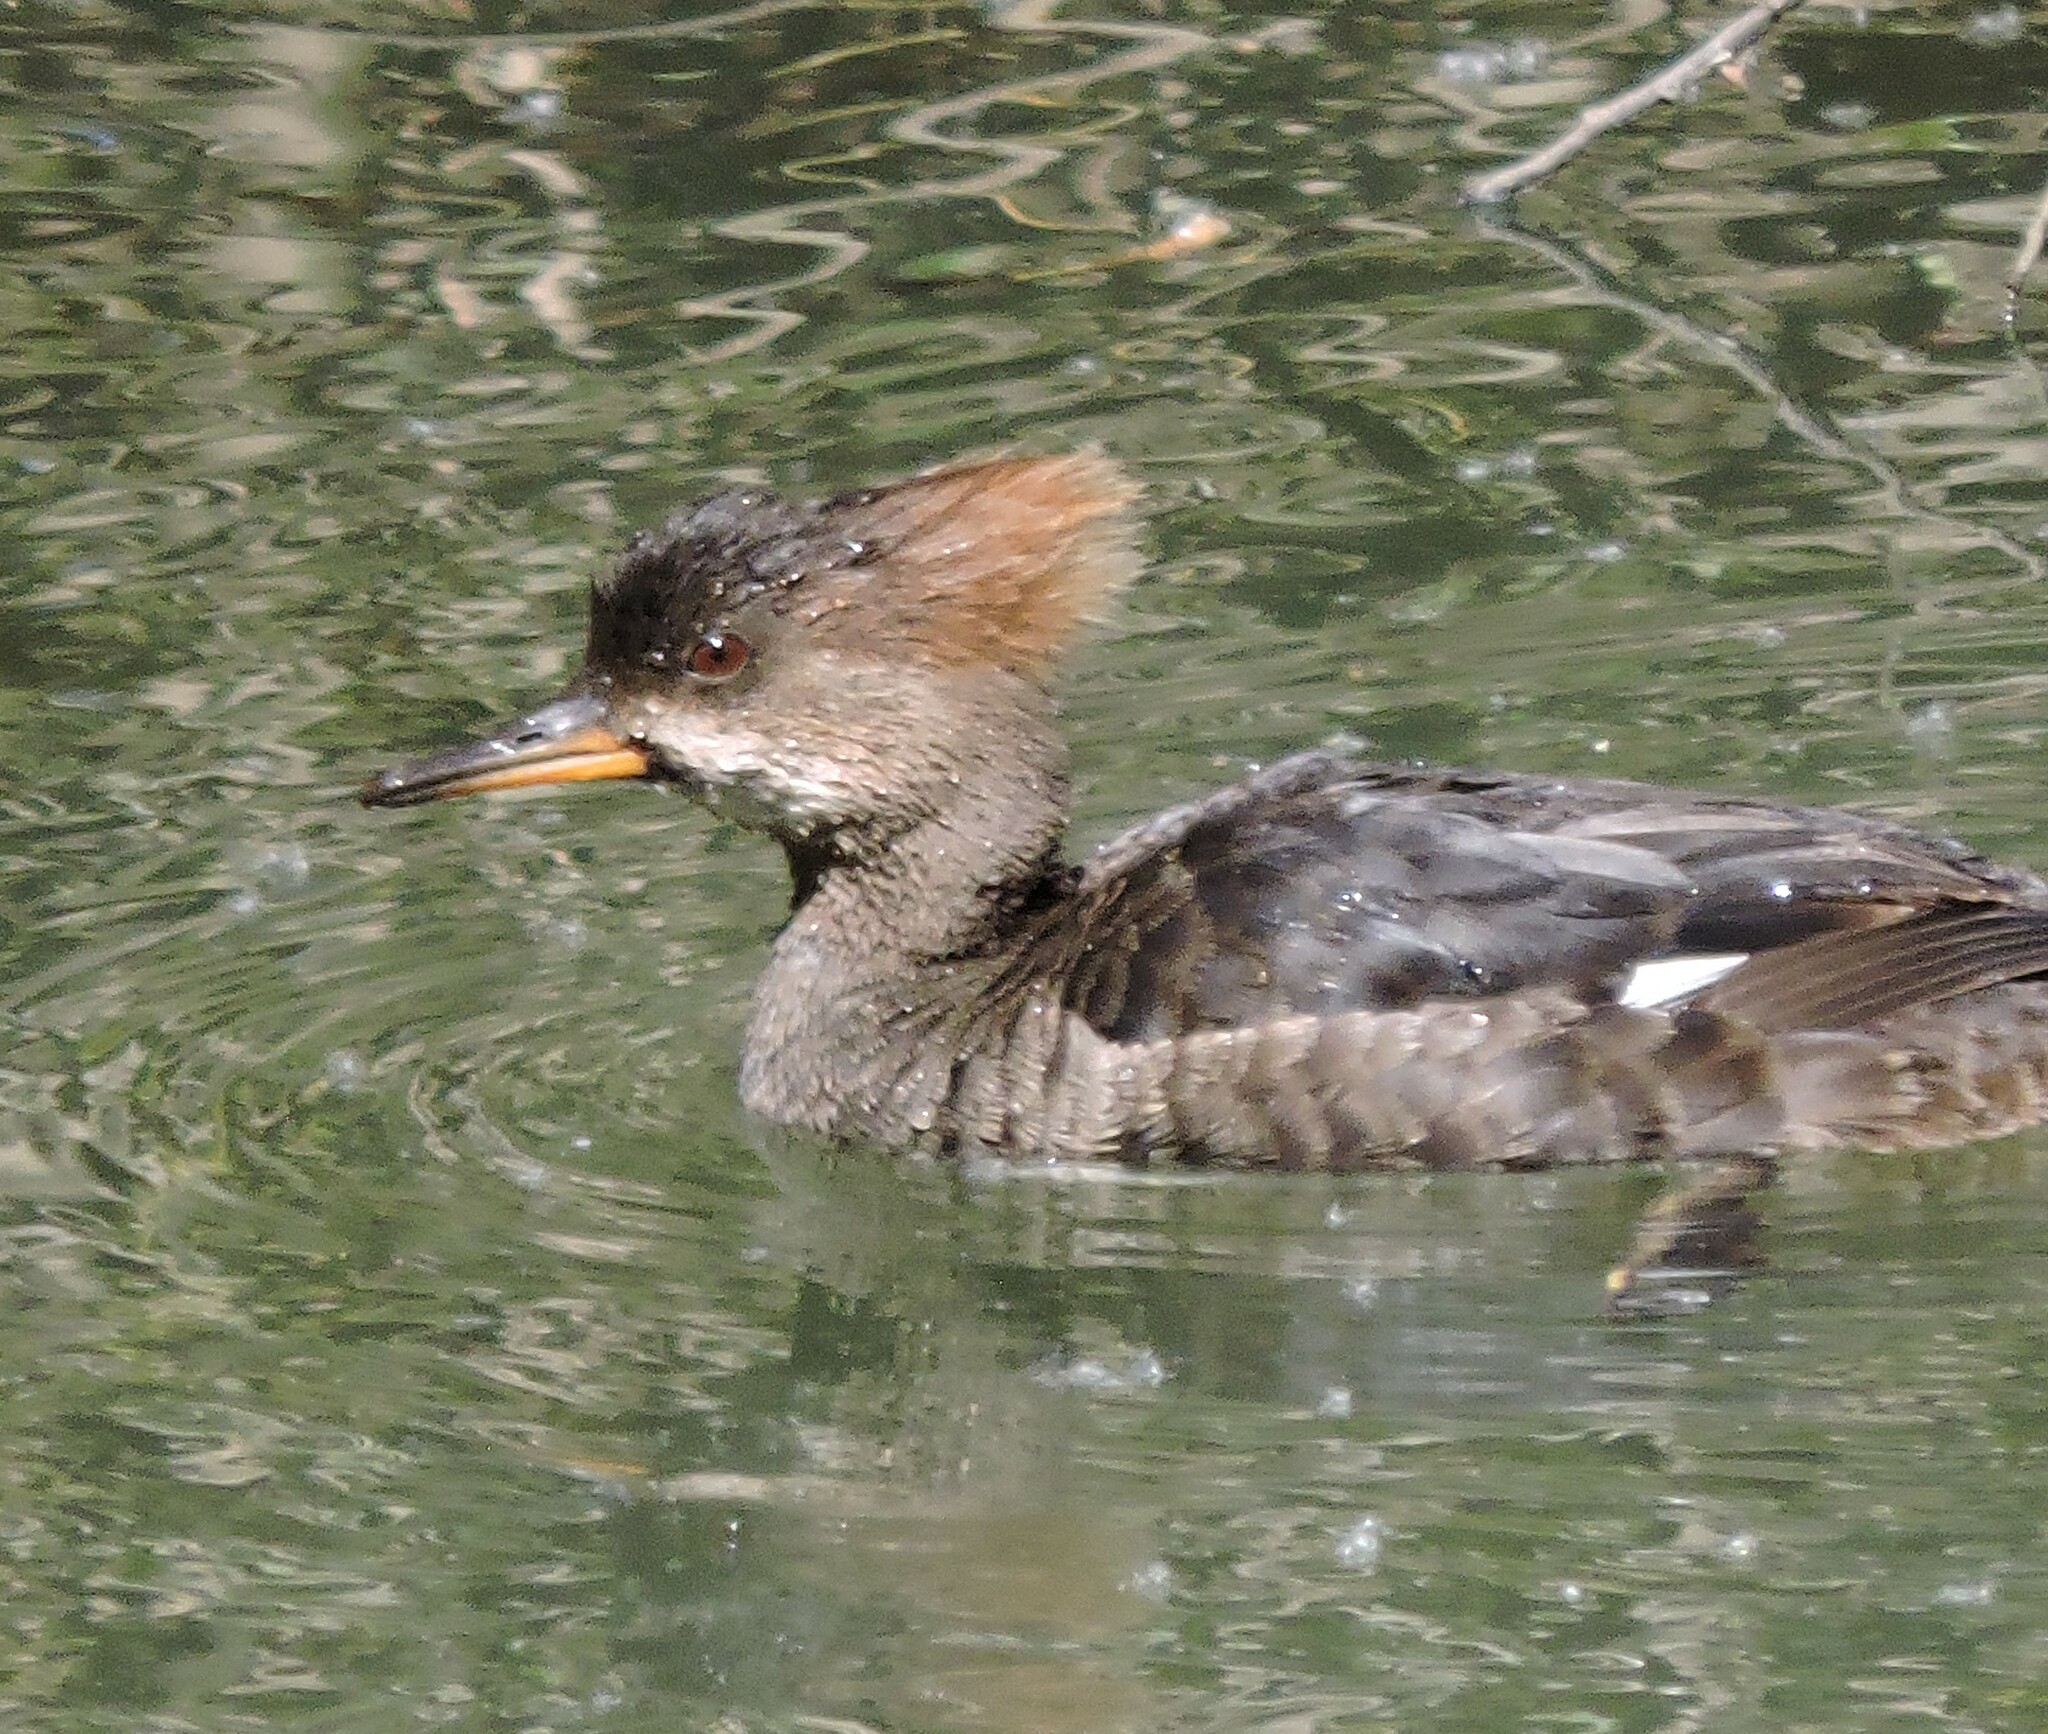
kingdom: Animalia
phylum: Chordata
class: Aves
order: Anseriformes
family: Anatidae
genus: Lophodytes
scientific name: Lophodytes cucullatus
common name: Hooded merganser
